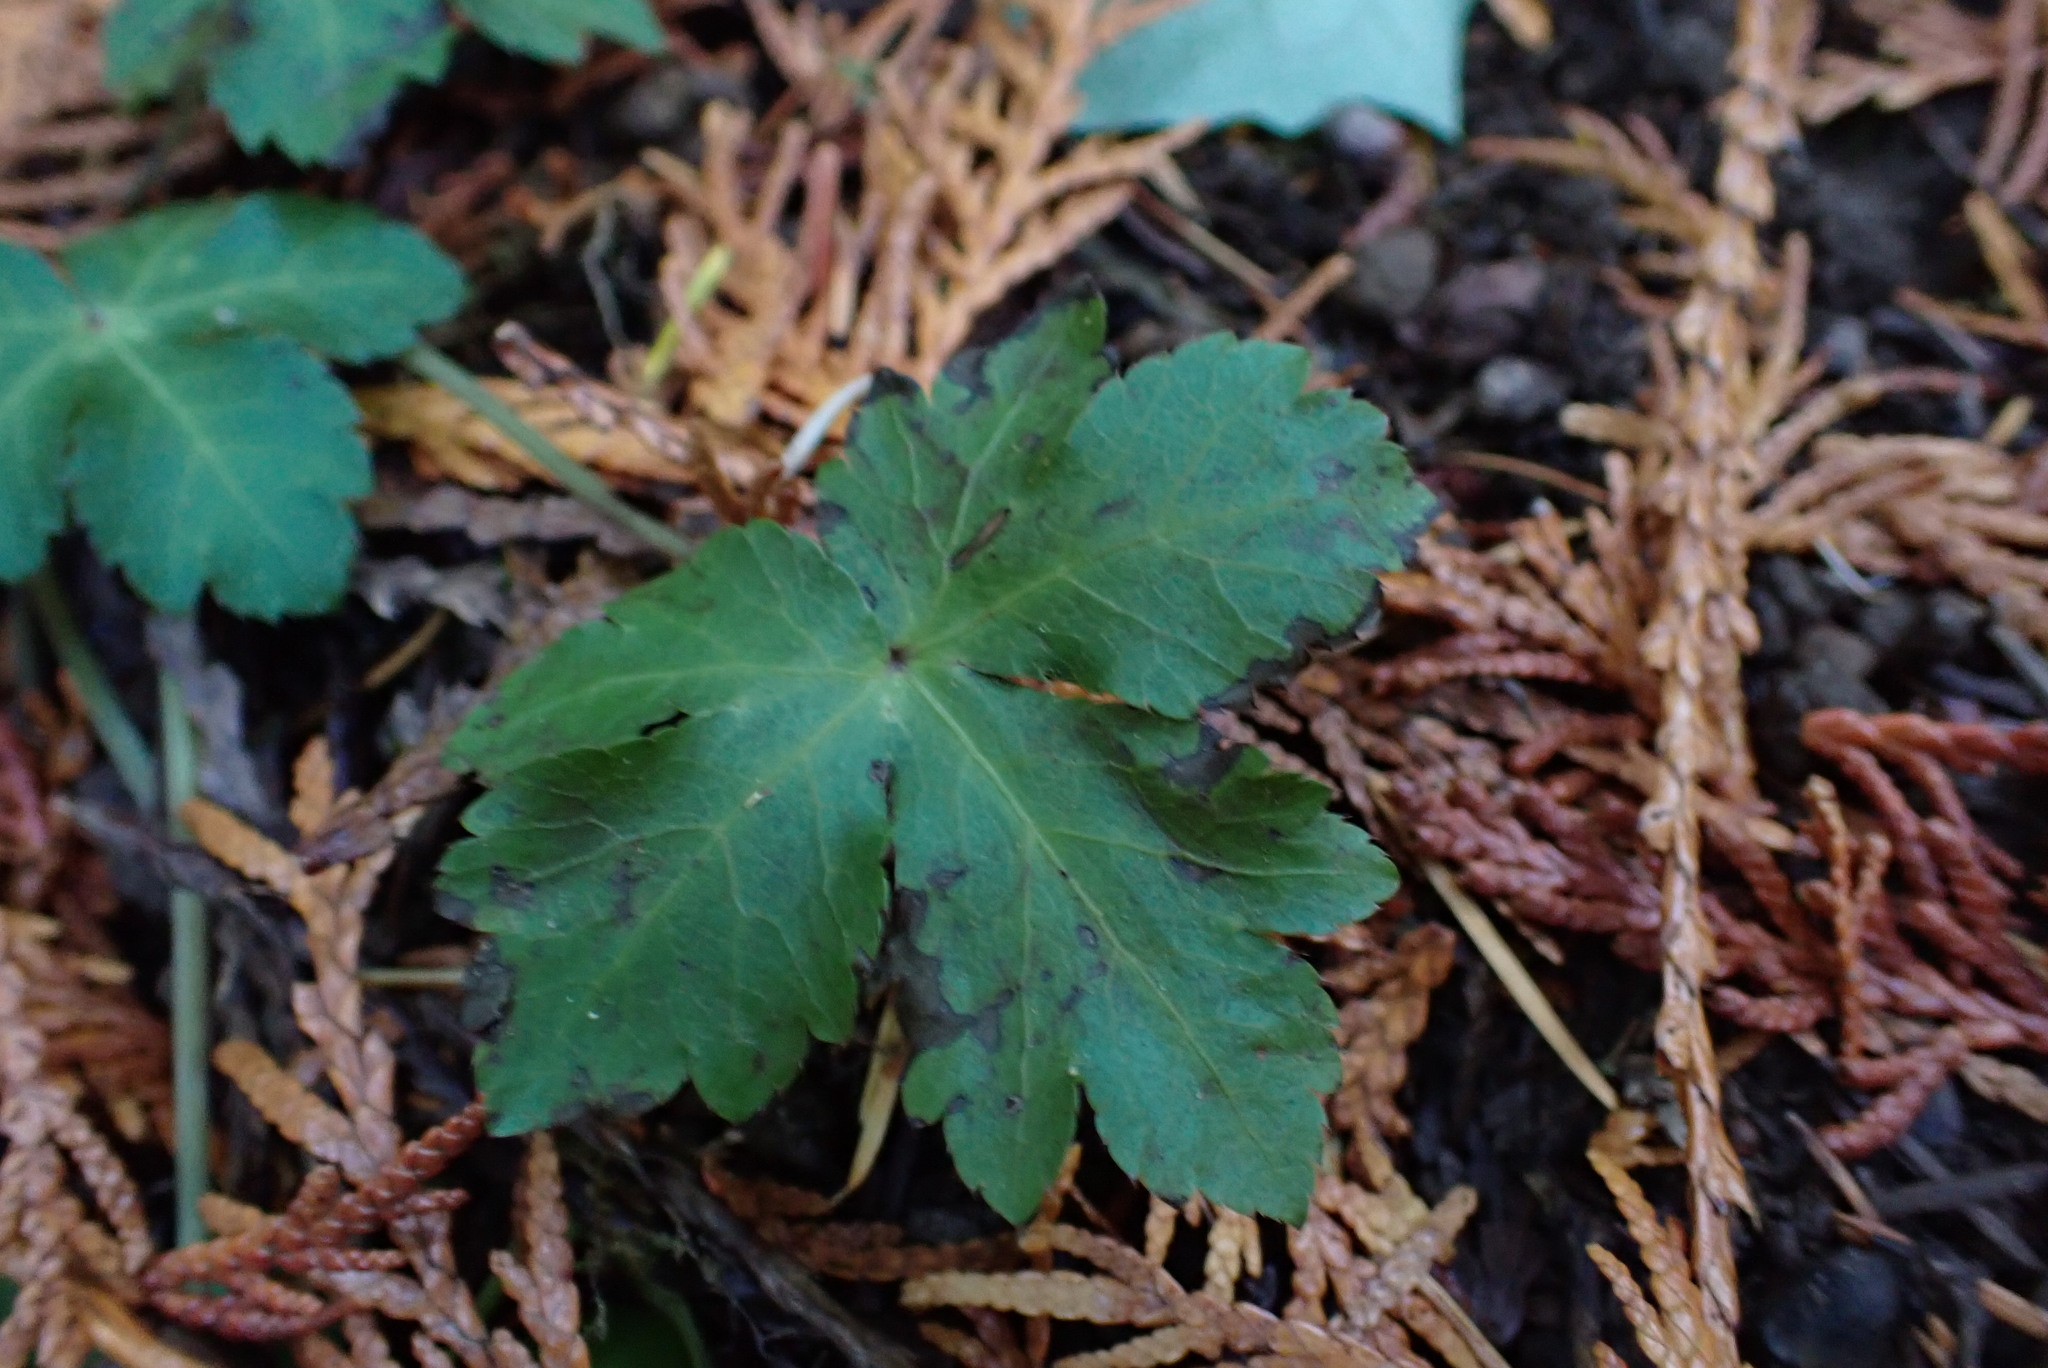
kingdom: Plantae
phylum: Tracheophyta
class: Magnoliopsida
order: Apiales
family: Apiaceae
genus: Sanicula
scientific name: Sanicula crassicaulis
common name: Western snakeroot
